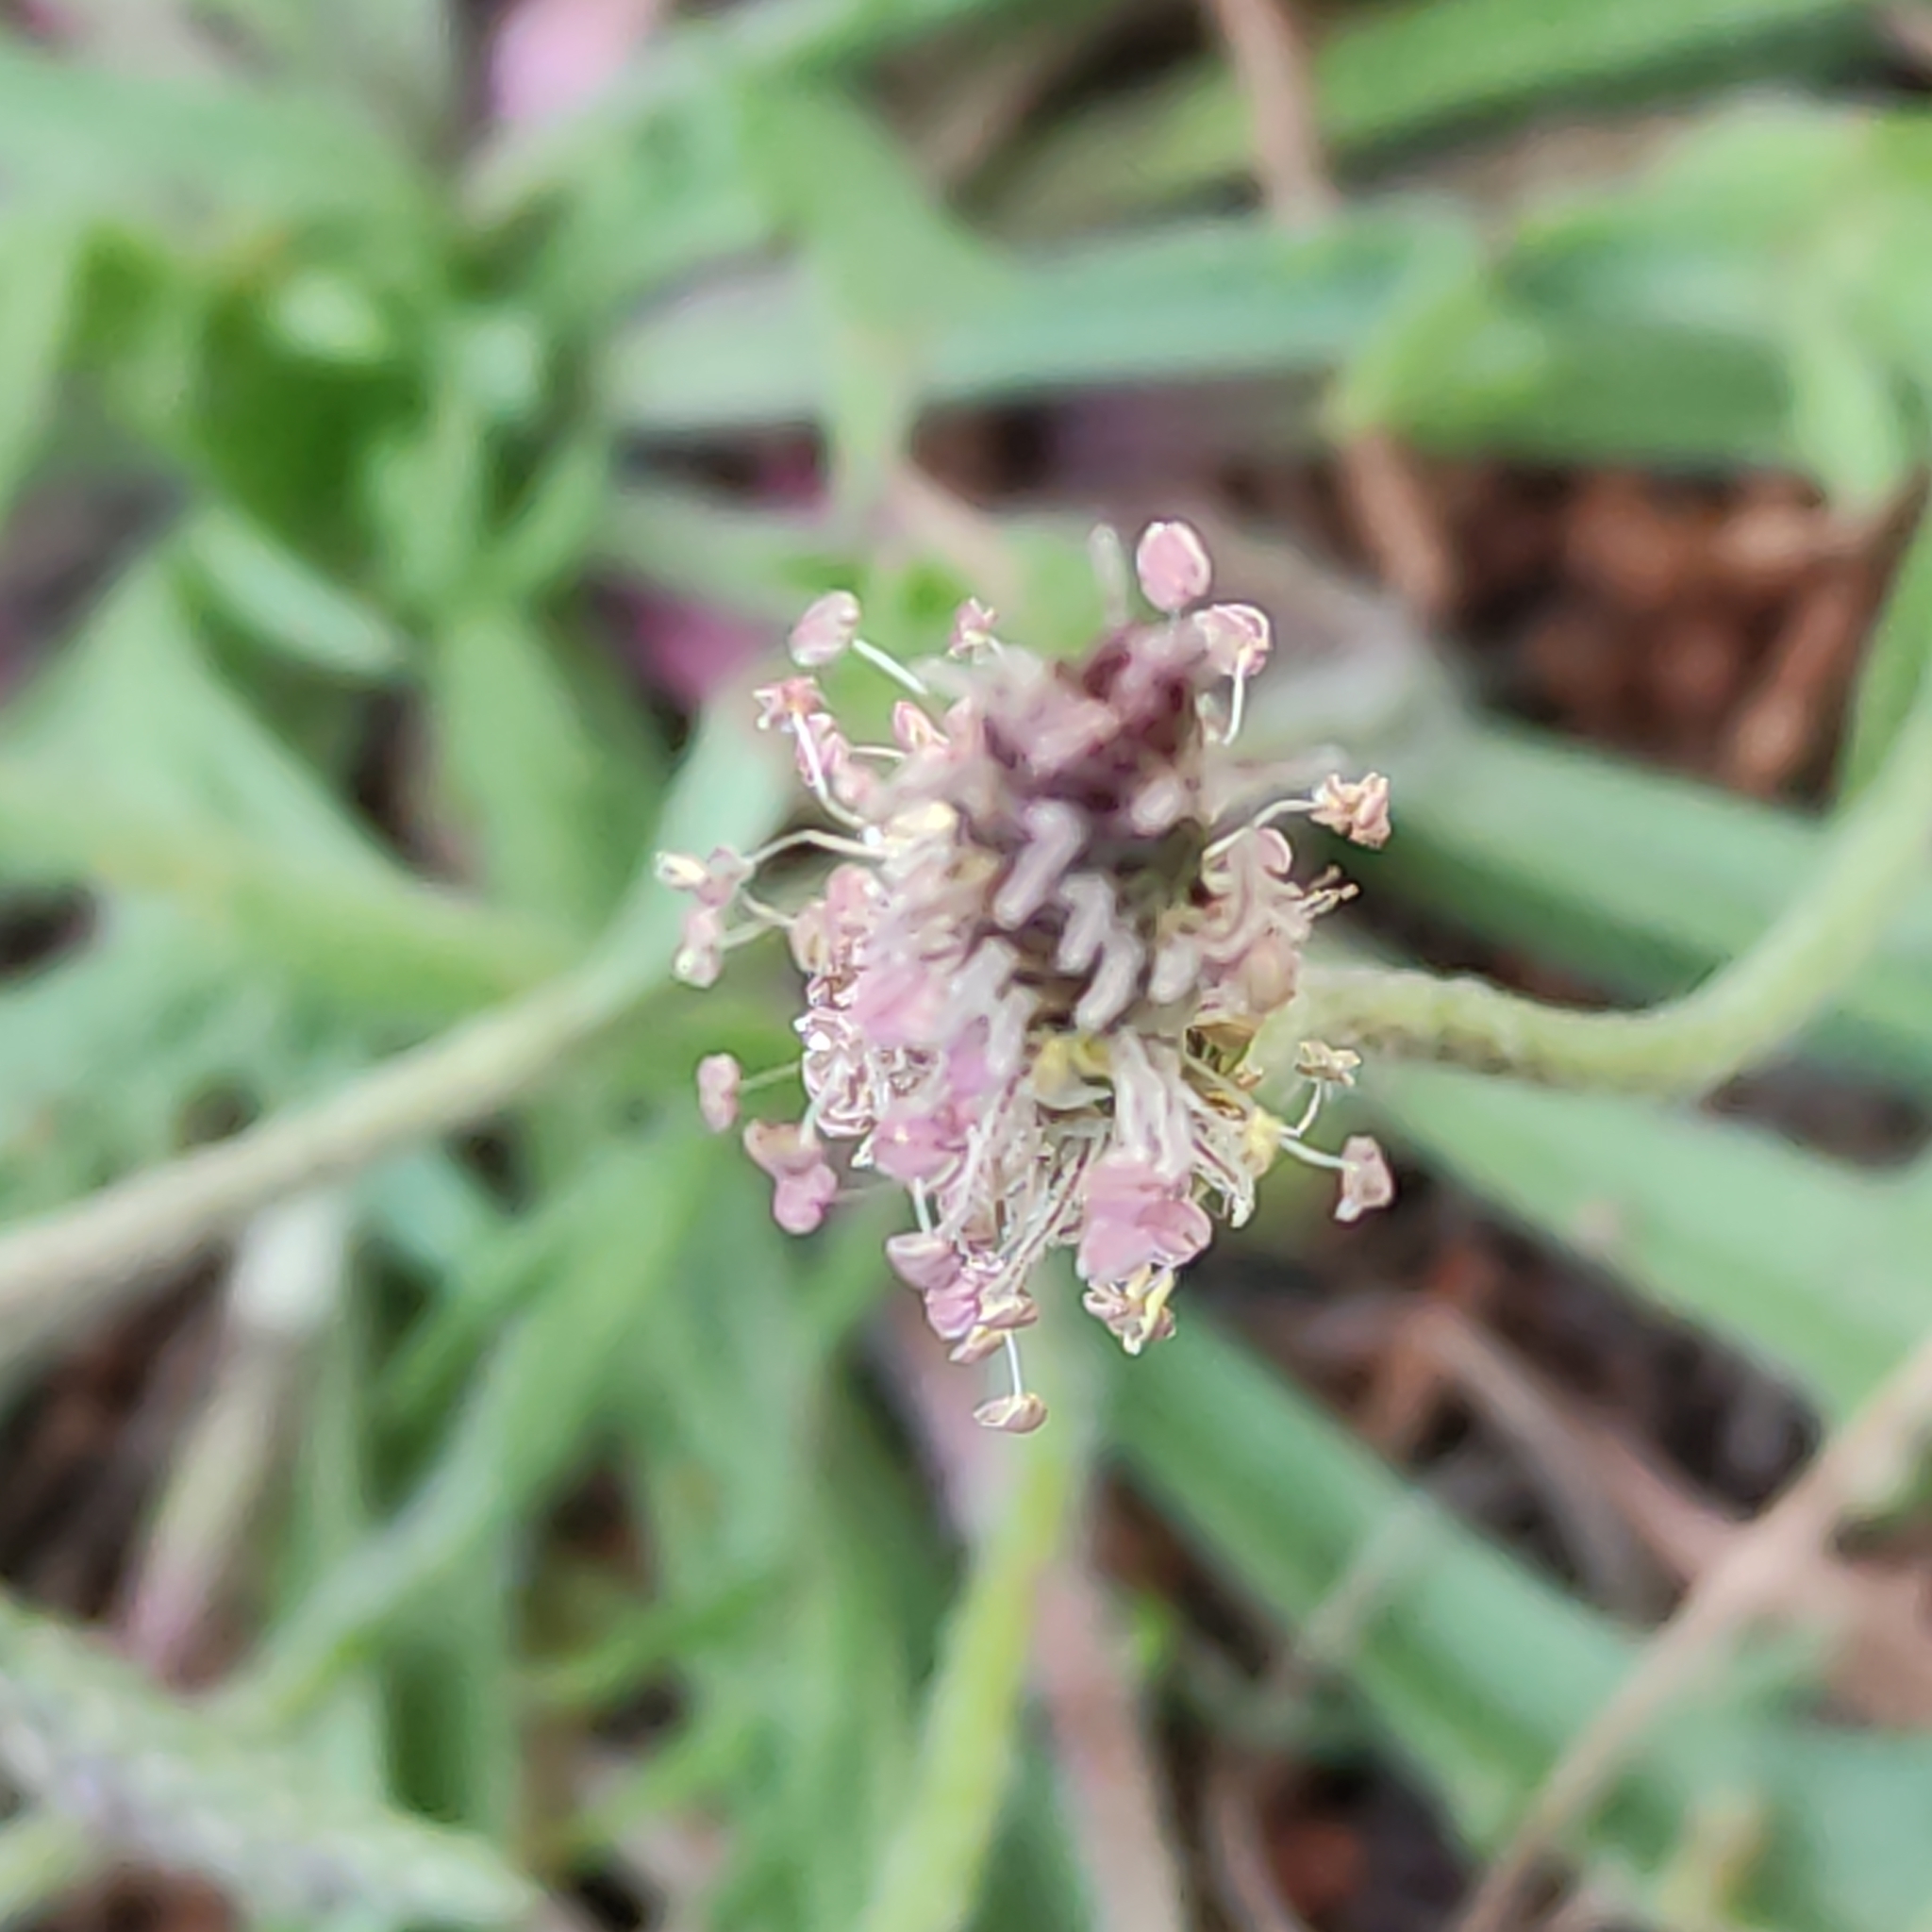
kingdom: Plantae
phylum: Tracheophyta
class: Magnoliopsida
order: Lamiales
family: Plantaginaceae
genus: Plantago
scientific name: Plantago coronopus
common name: Buck's-horn plantain
